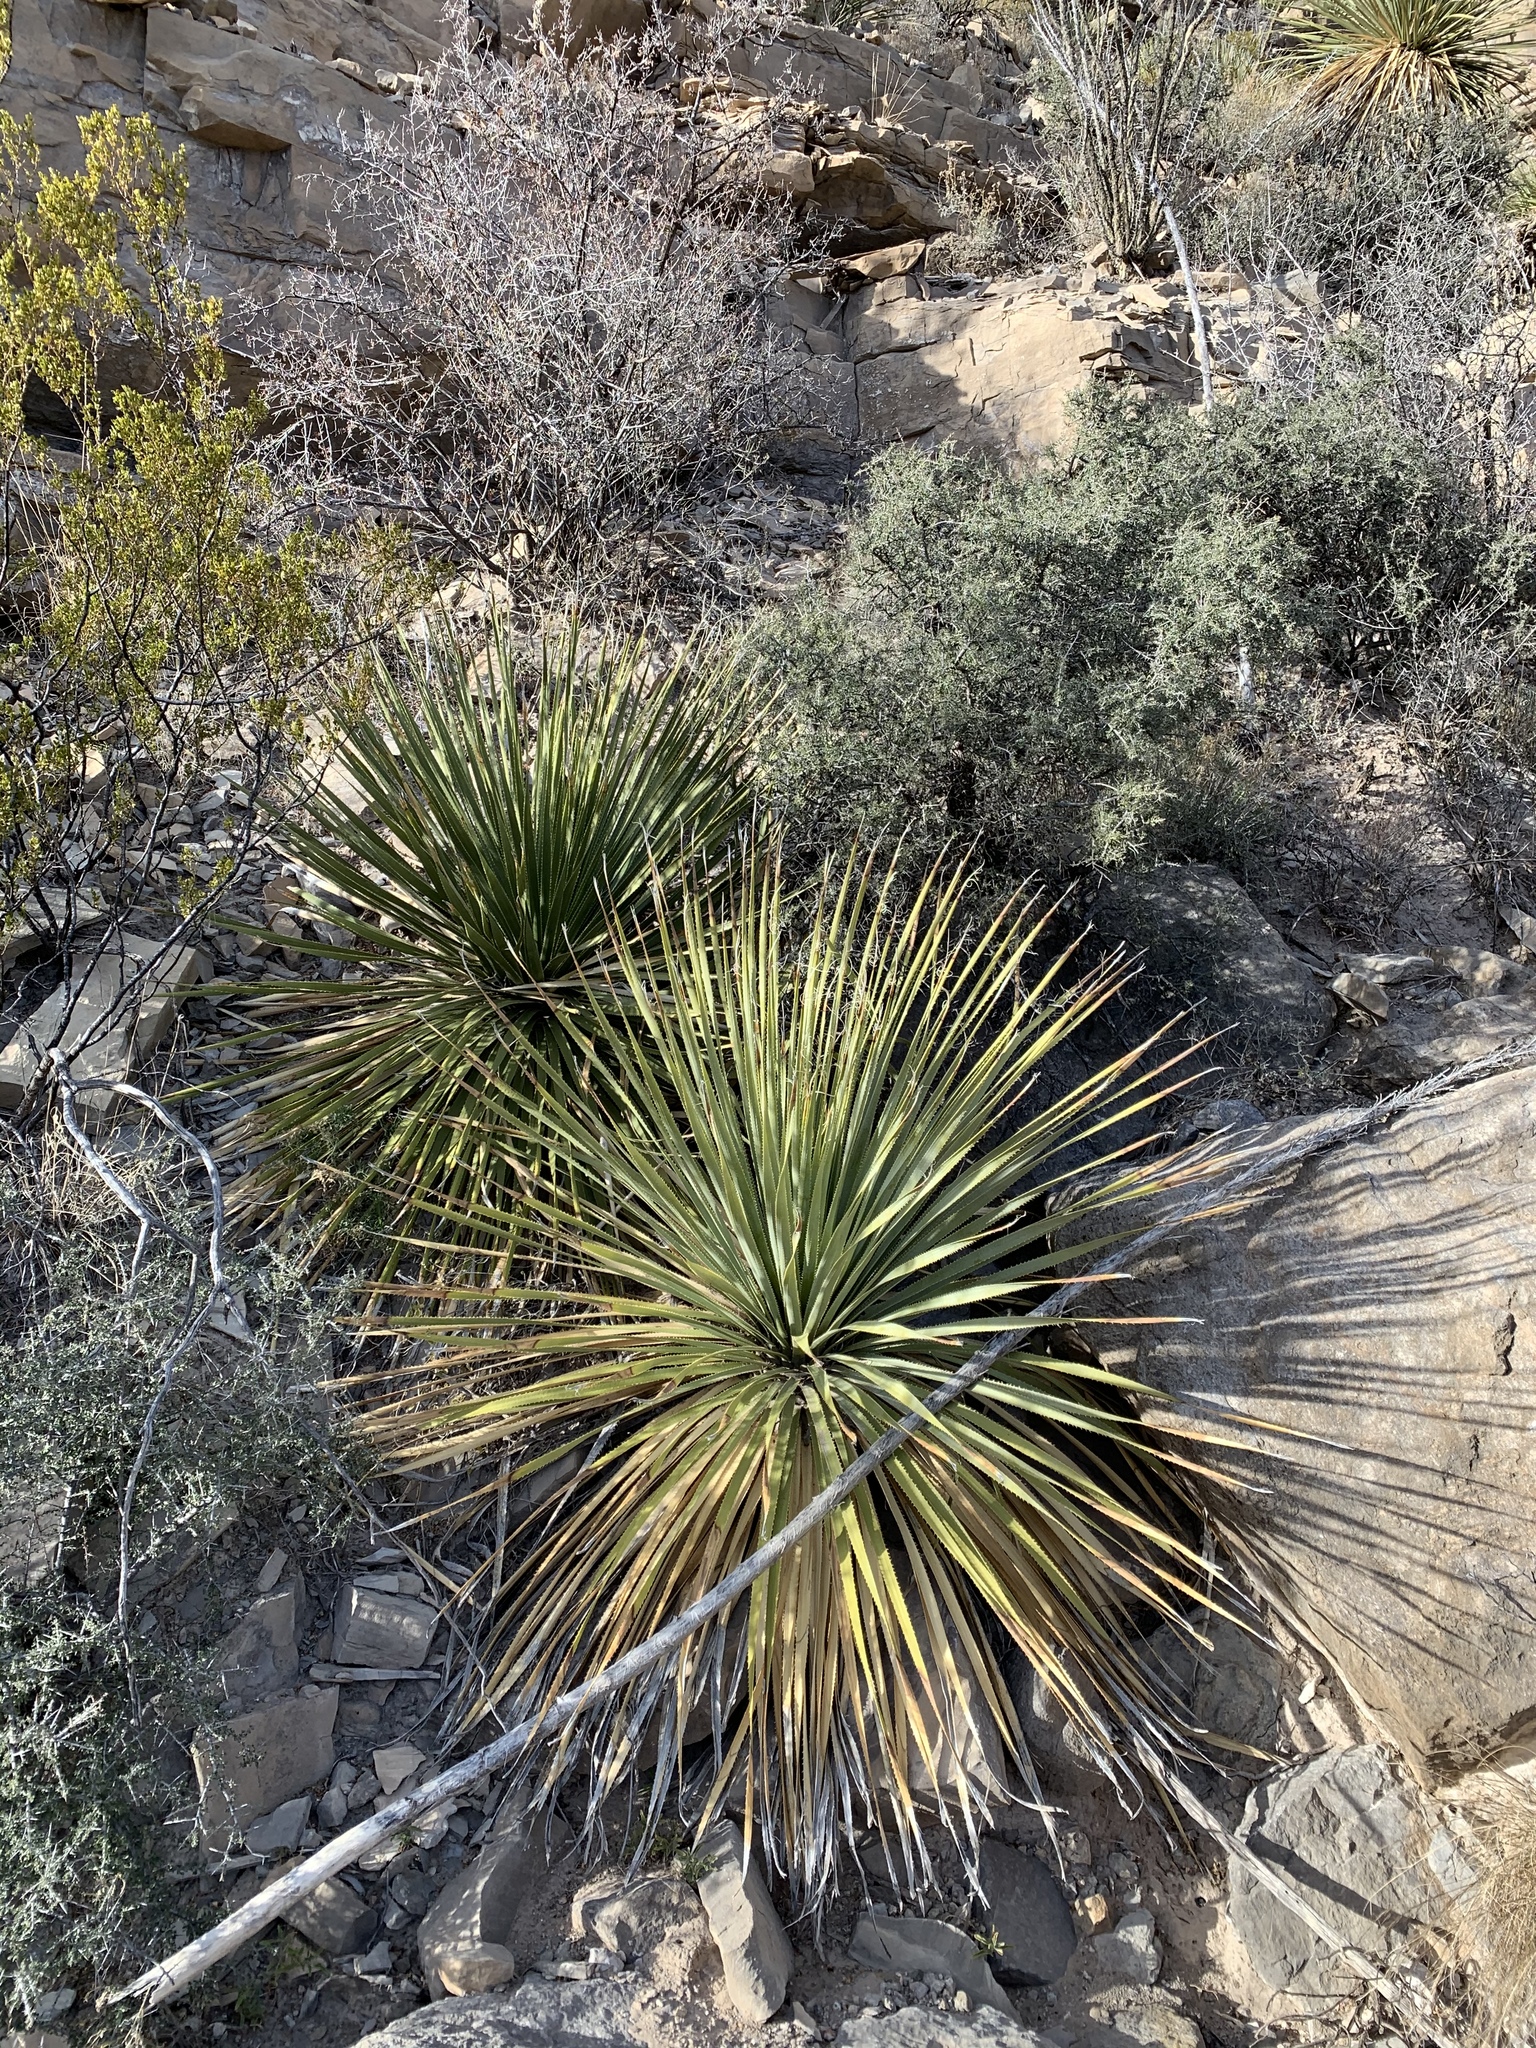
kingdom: Plantae
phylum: Tracheophyta
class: Liliopsida
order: Asparagales
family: Asparagaceae
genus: Dasylirion
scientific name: Dasylirion wheeleri
